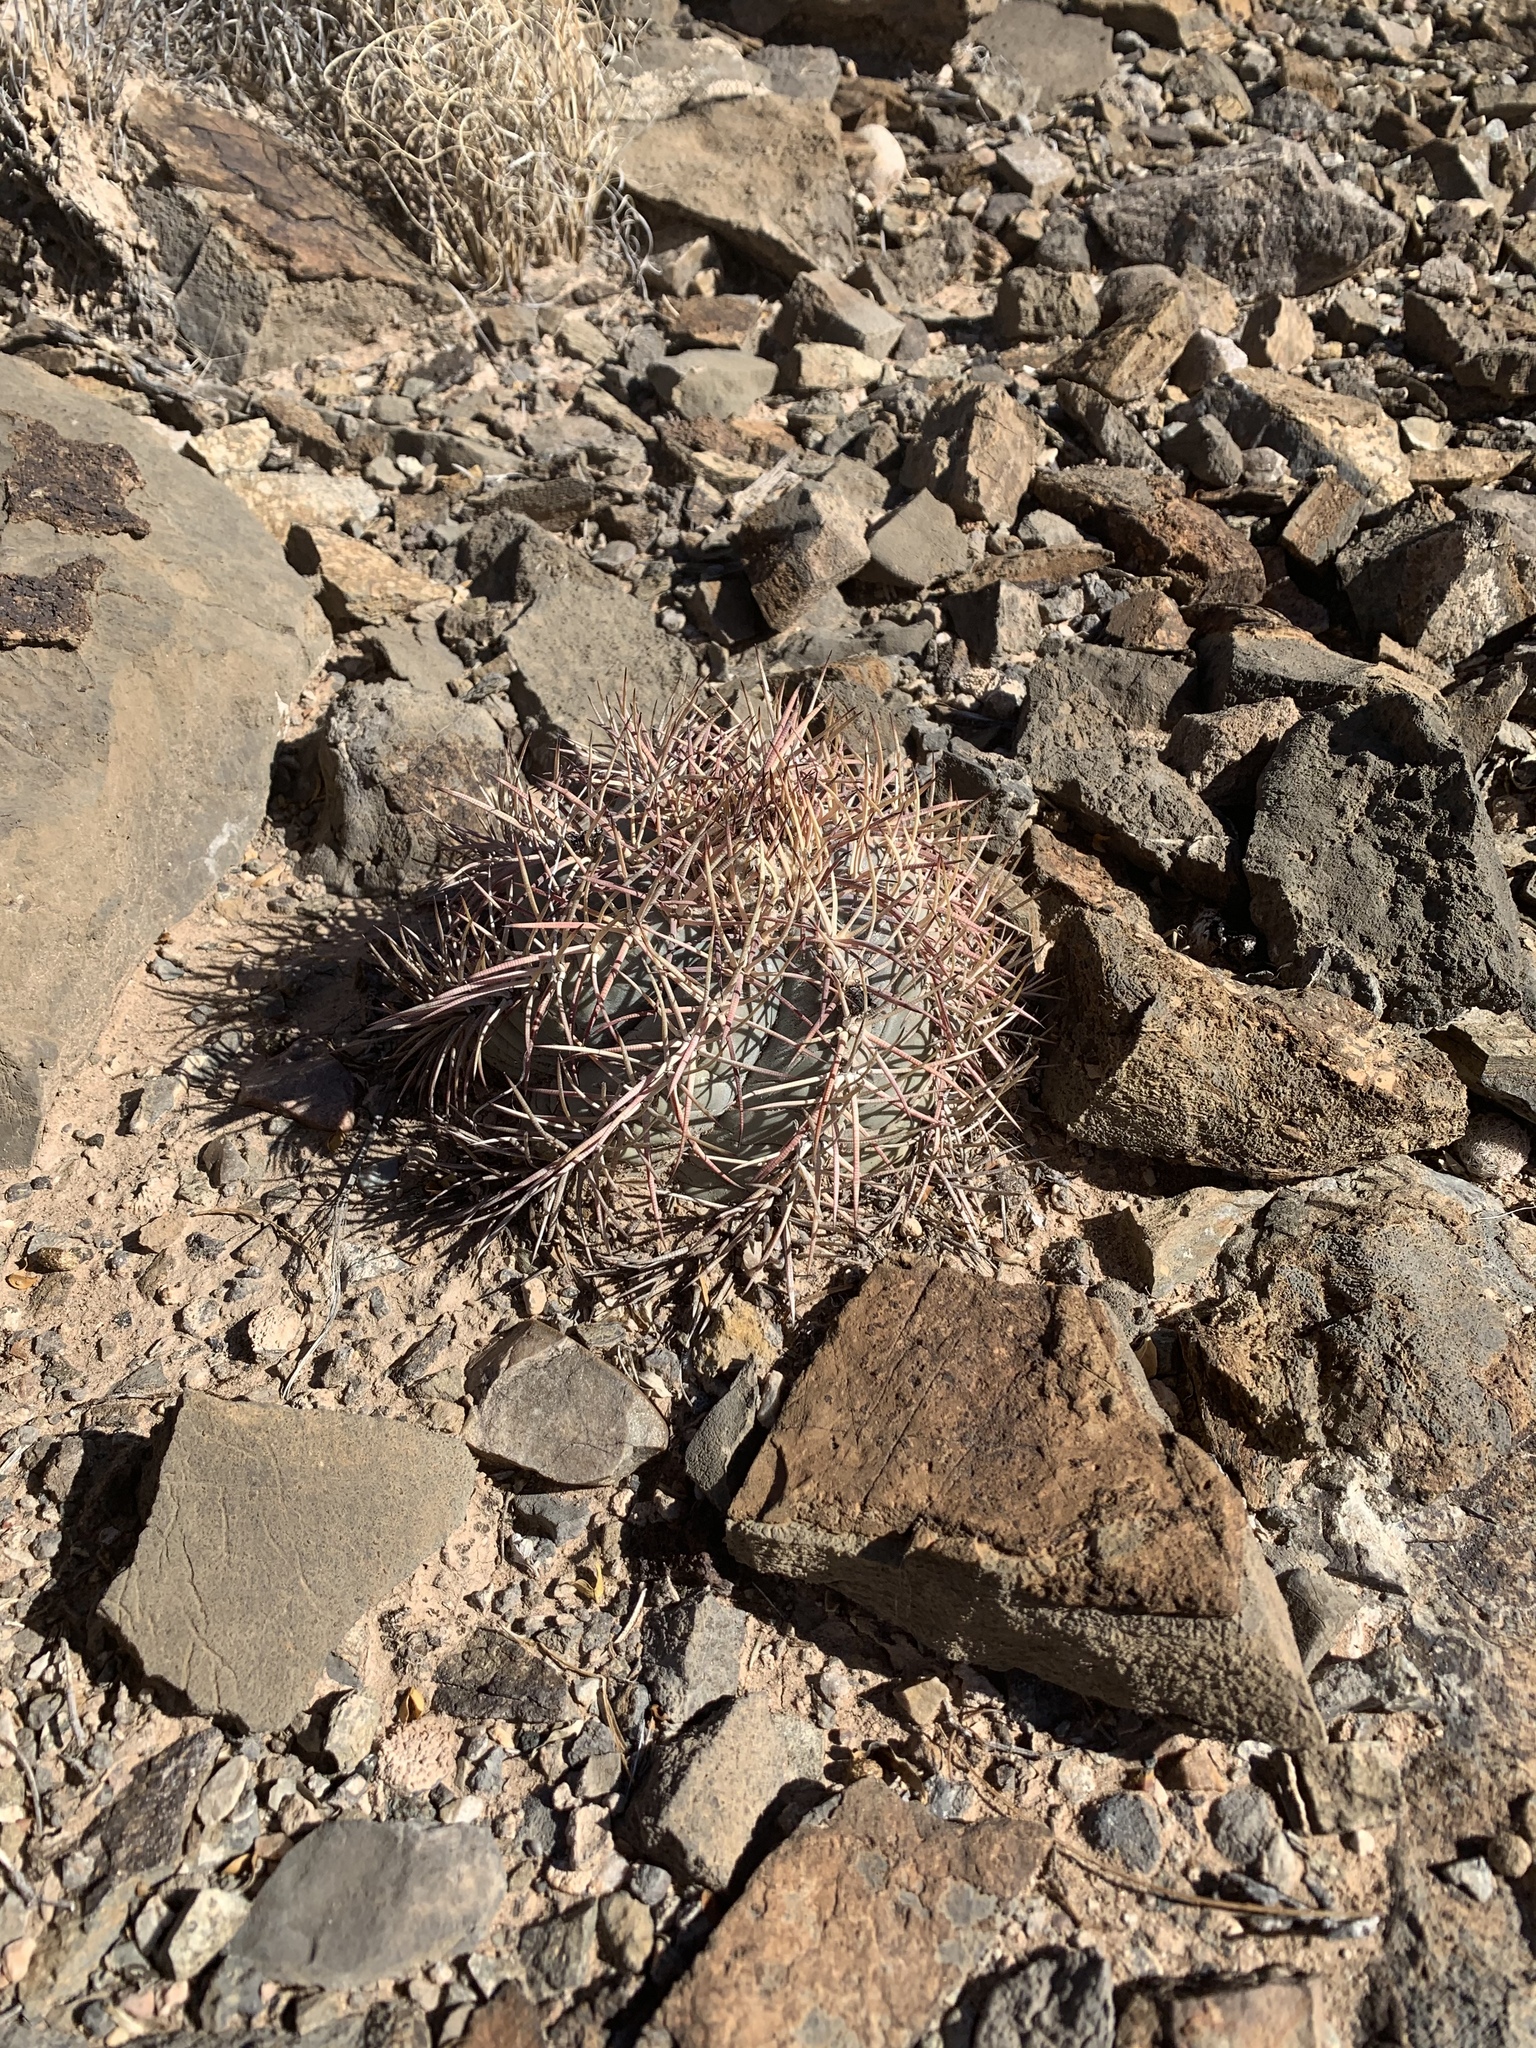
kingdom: Plantae
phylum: Tracheophyta
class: Magnoliopsida
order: Caryophyllales
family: Cactaceae
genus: Echinocactus
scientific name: Echinocactus horizonthalonius
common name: Devilshead
